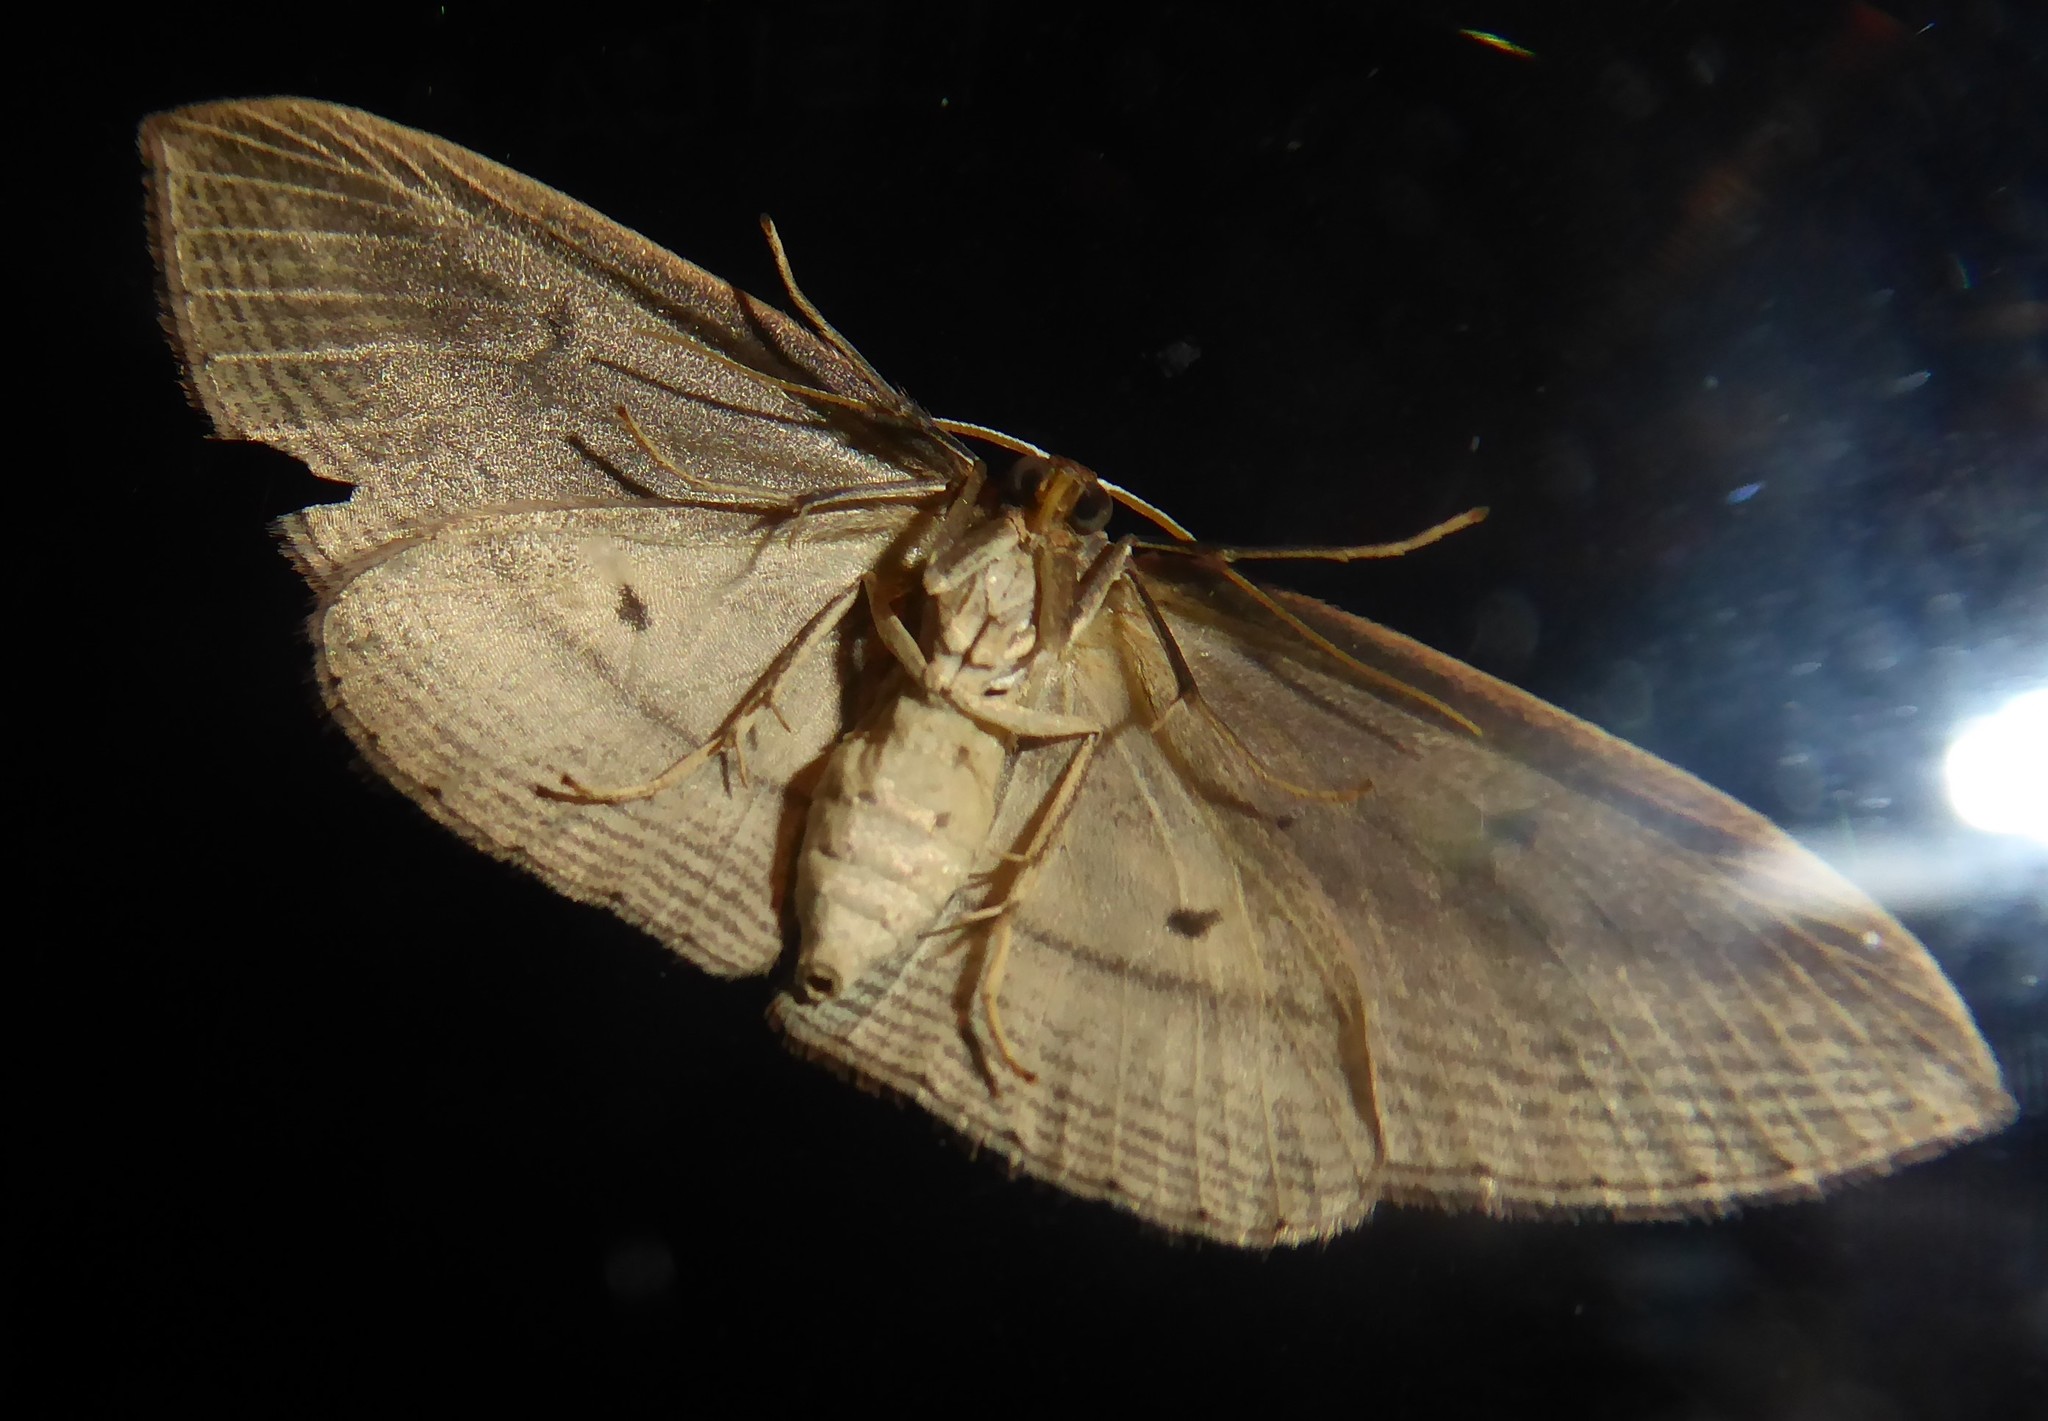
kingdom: Animalia
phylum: Arthropoda
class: Insecta
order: Lepidoptera
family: Geometridae
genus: Epiphryne
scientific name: Epiphryne verriculata
